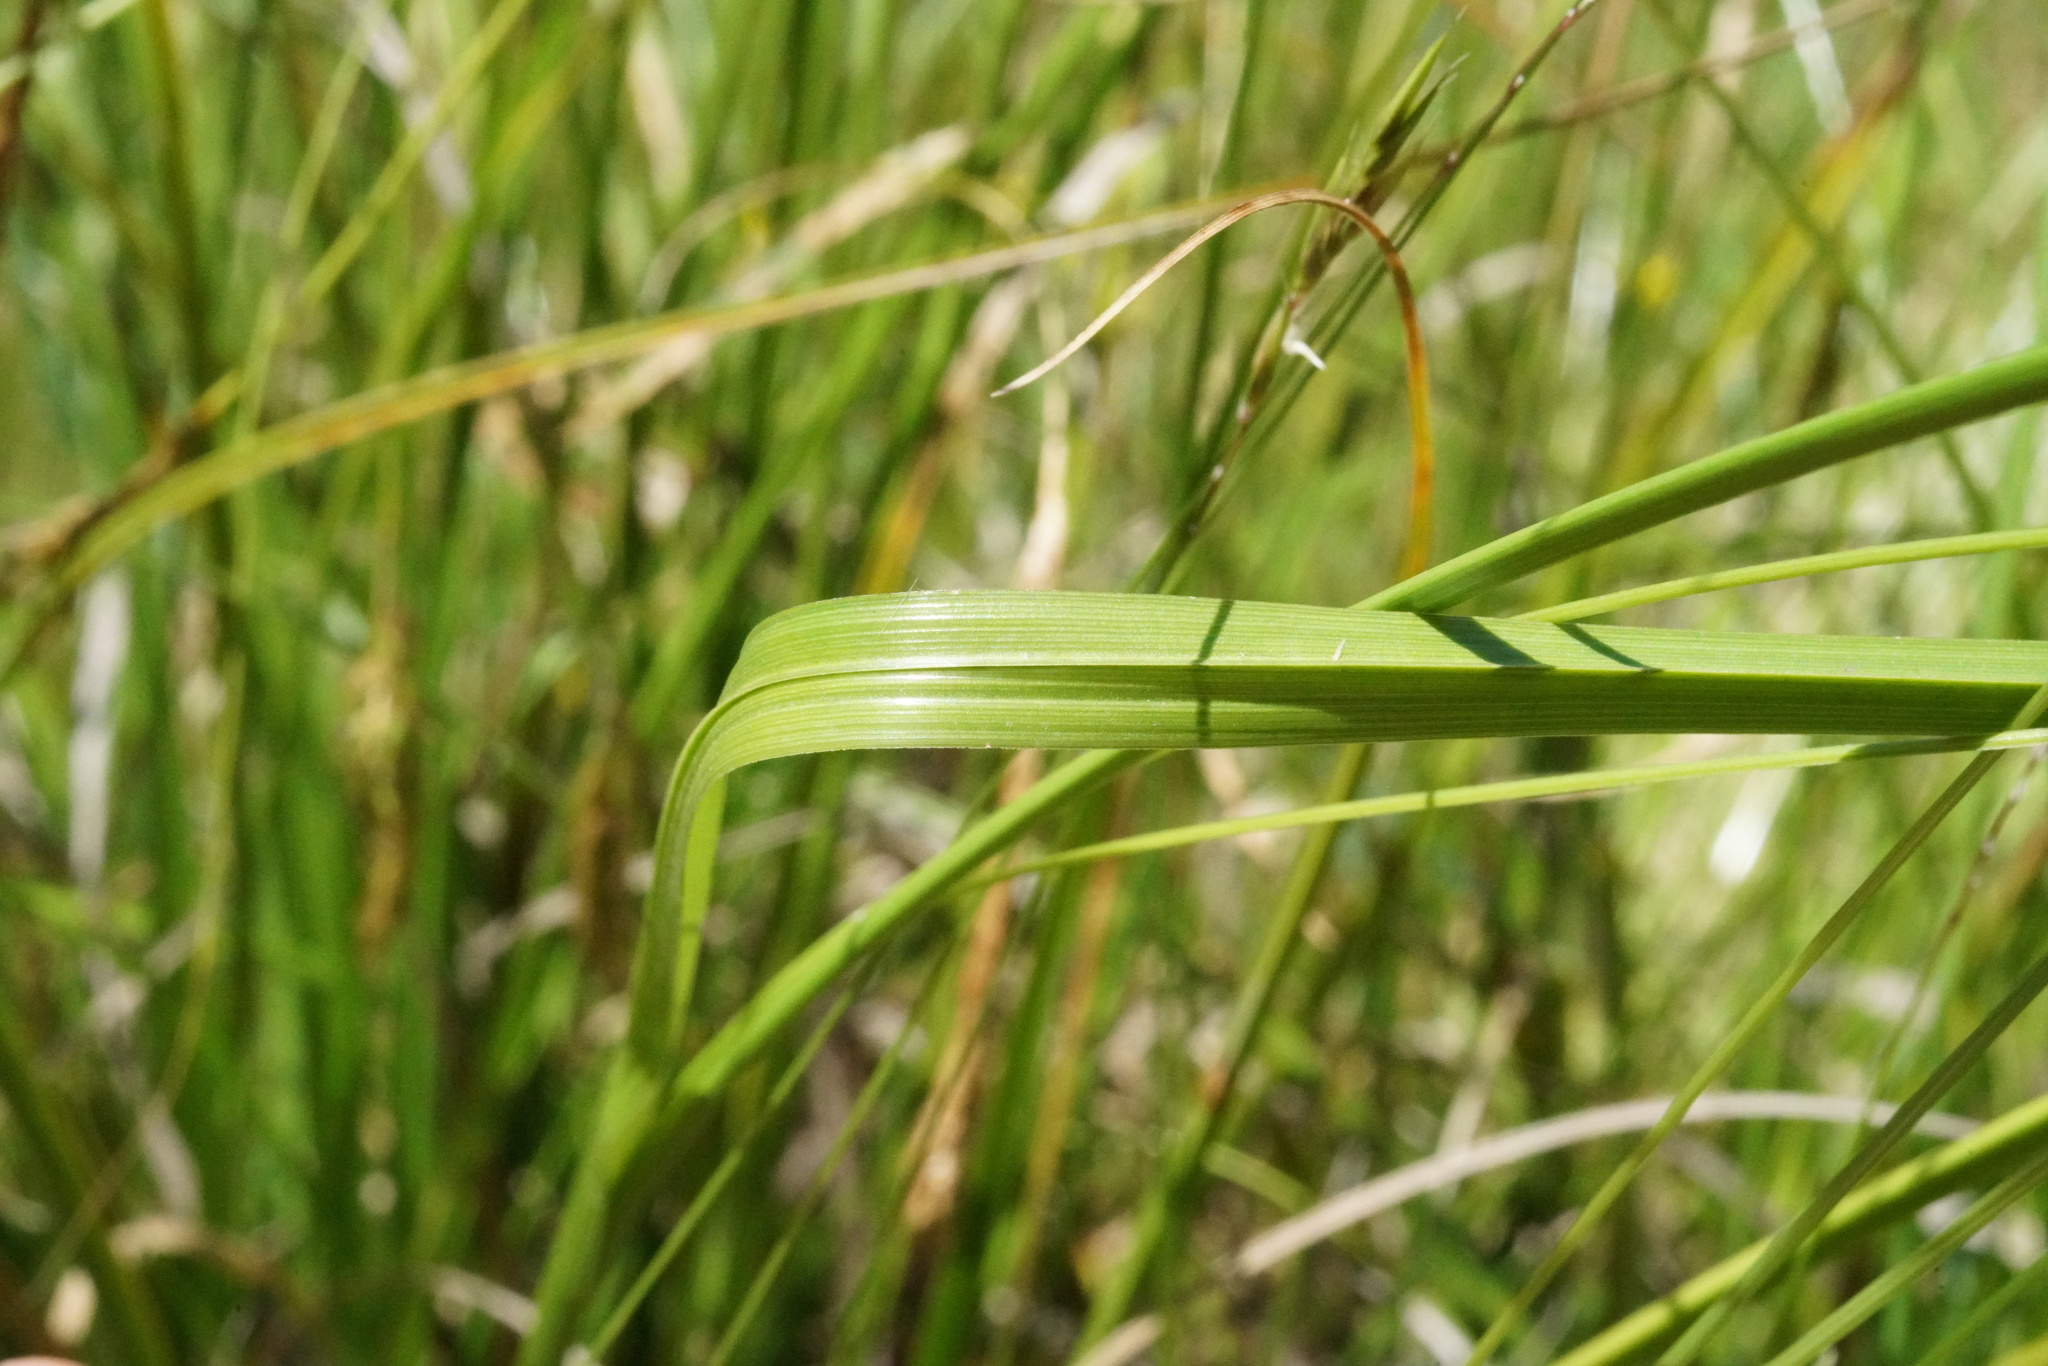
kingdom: Plantae
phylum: Tracheophyta
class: Liliopsida
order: Poales
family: Cyperaceae
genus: Carex
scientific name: Carex iynx
